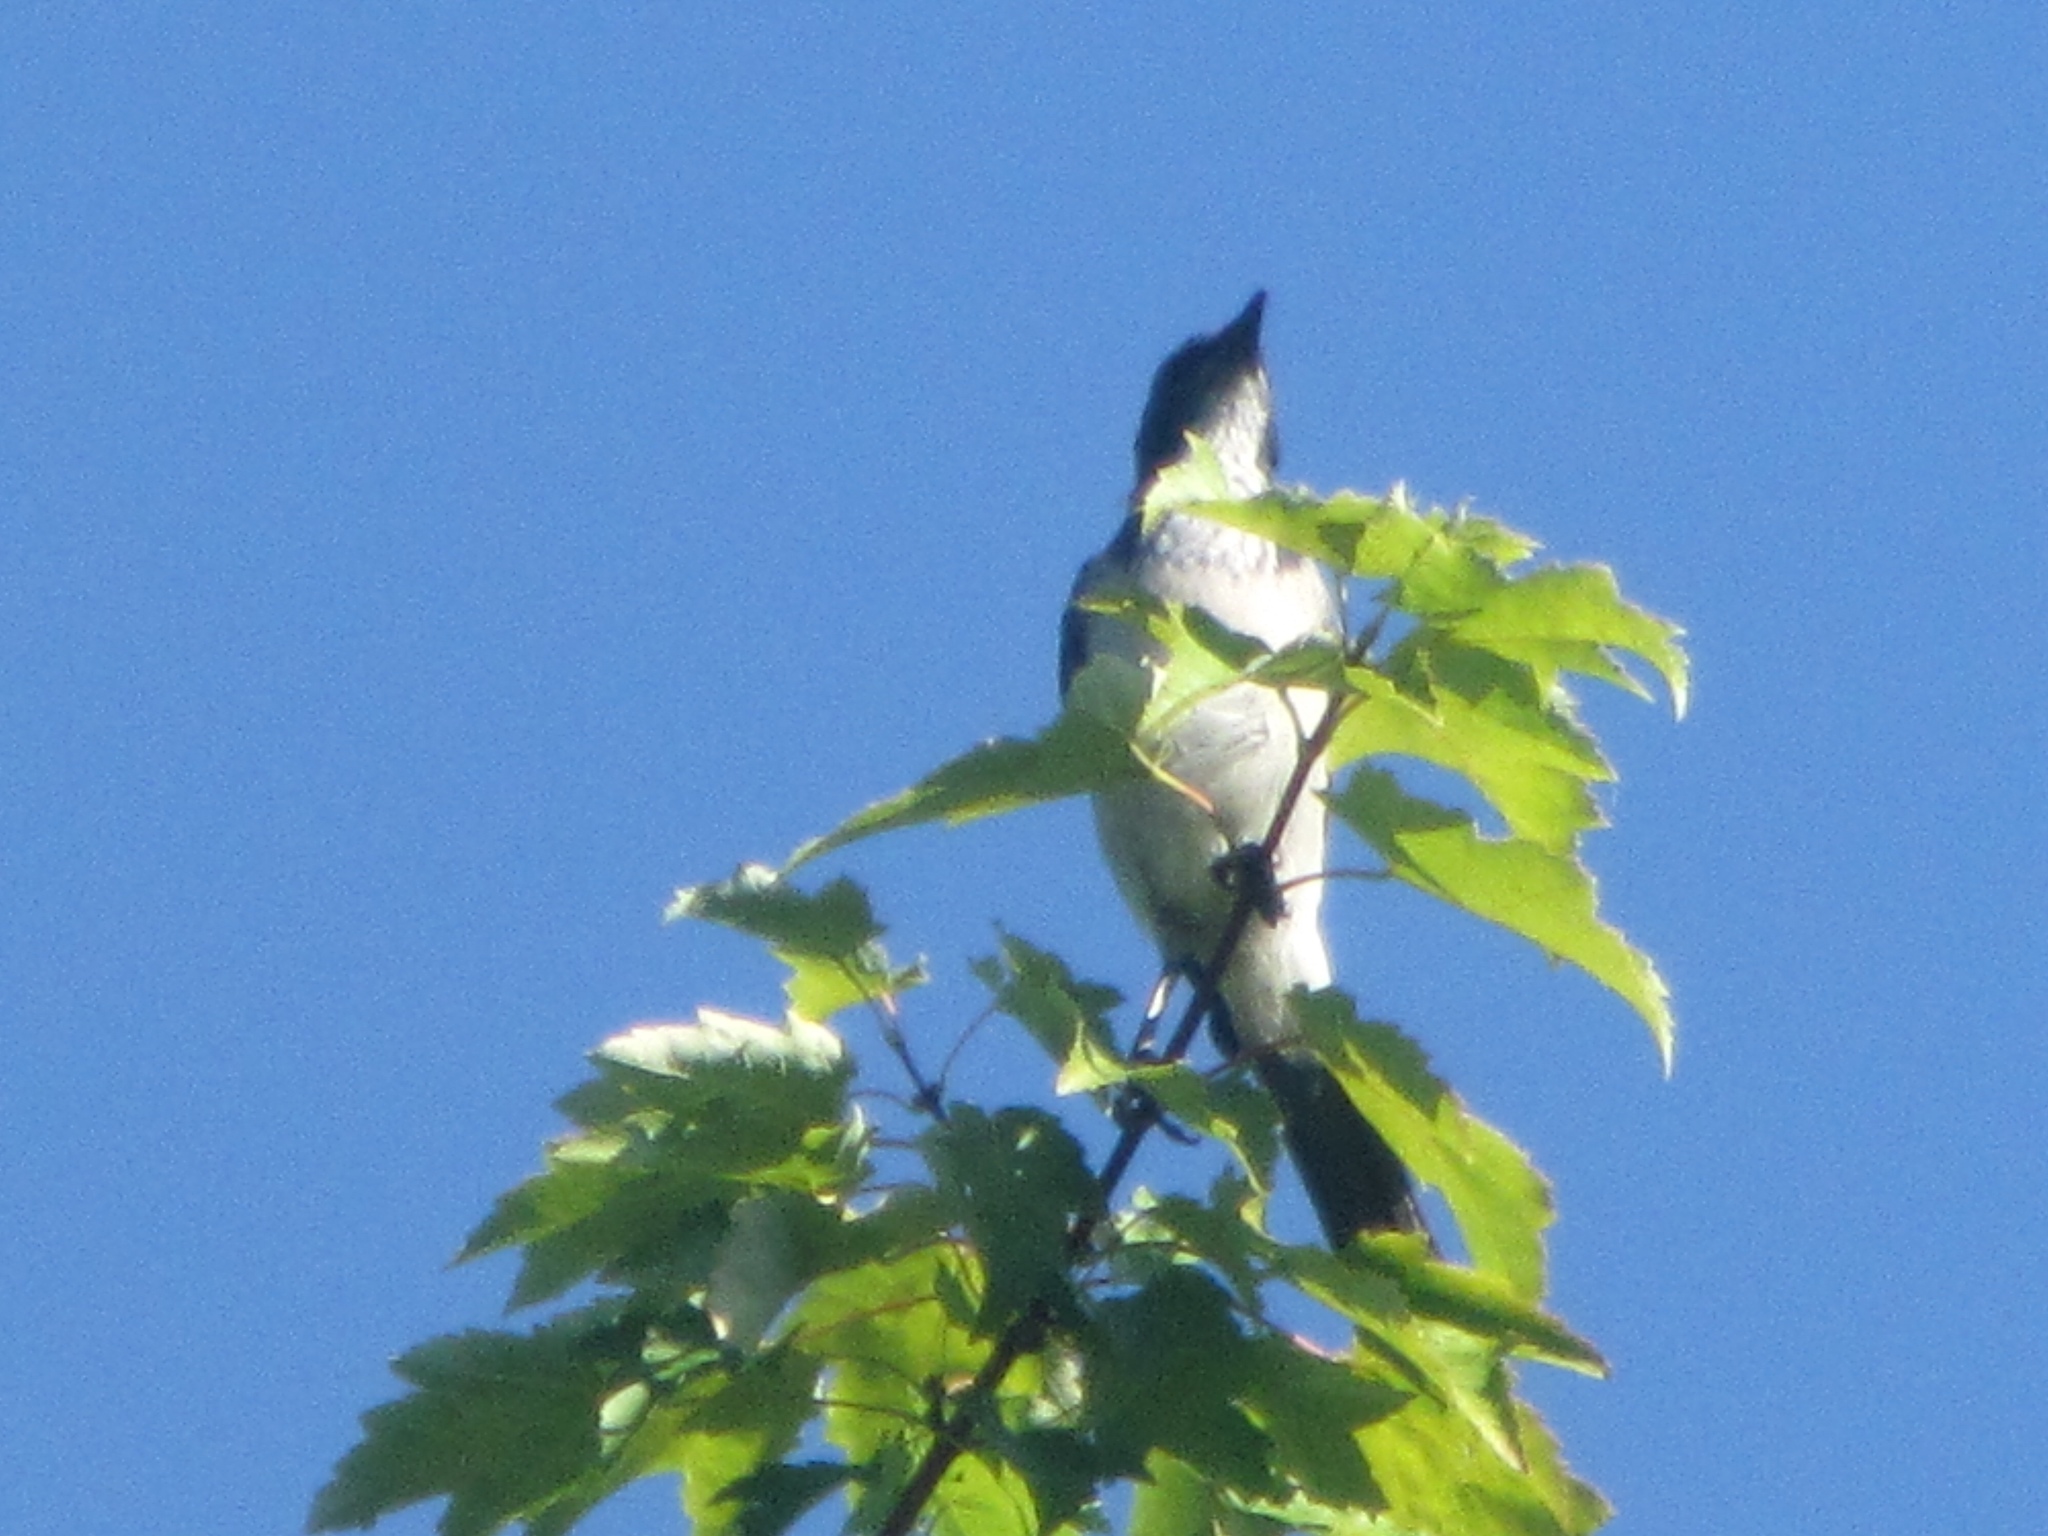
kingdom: Animalia
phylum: Chordata
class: Aves
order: Passeriformes
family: Corvidae
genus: Aphelocoma
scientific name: Aphelocoma californica
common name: California scrub-jay
